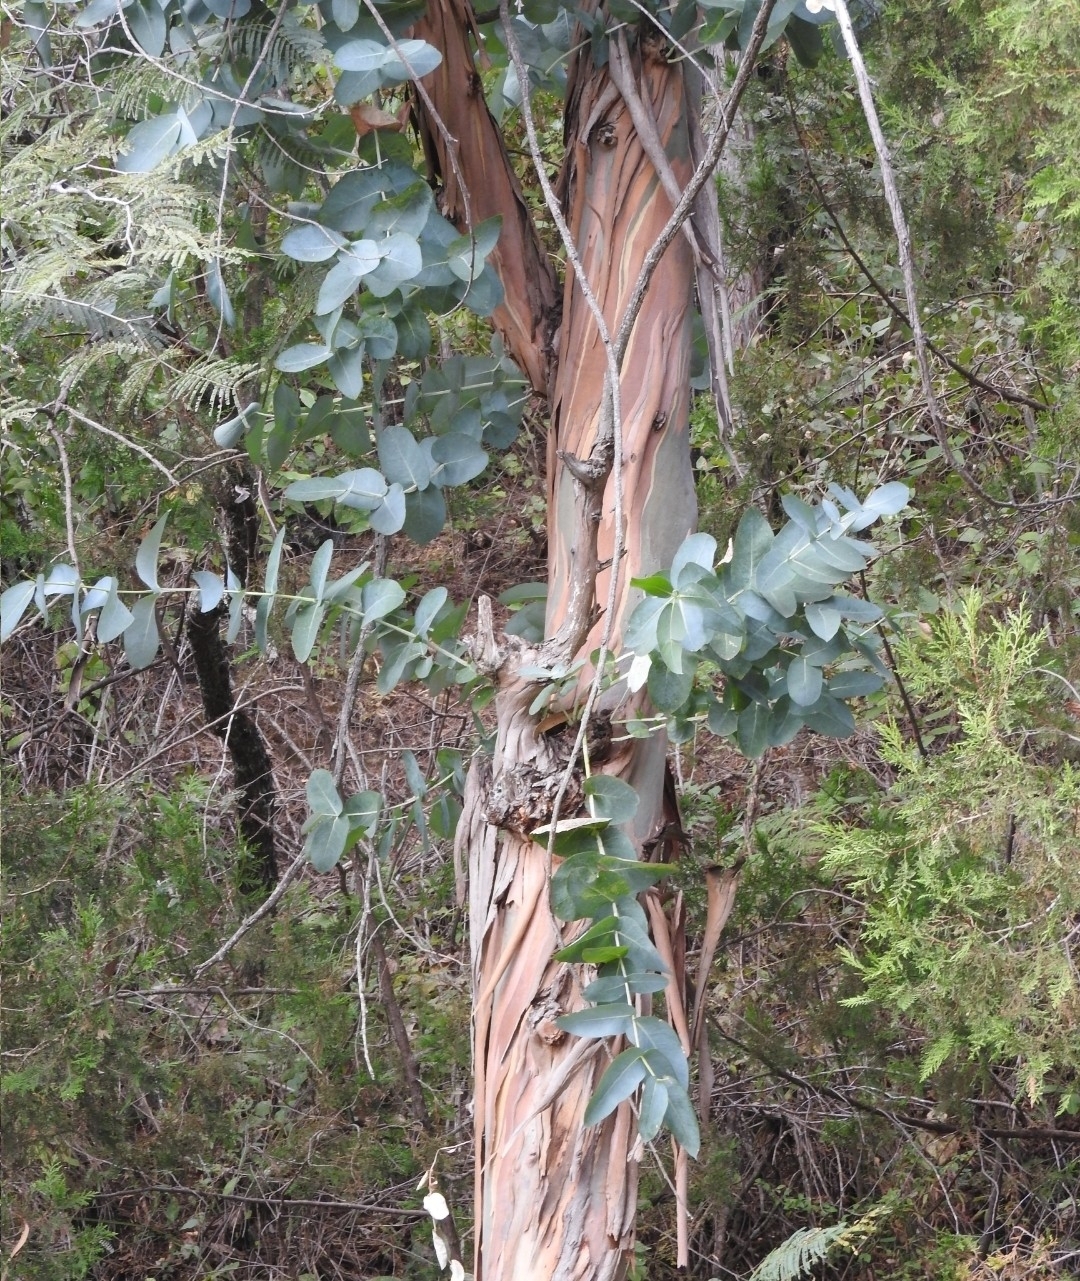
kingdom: Plantae
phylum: Tracheophyta
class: Magnoliopsida
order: Myrtales
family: Myrtaceae
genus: Eucalyptus
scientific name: Eucalyptus globulus
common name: Southern blue-gum
